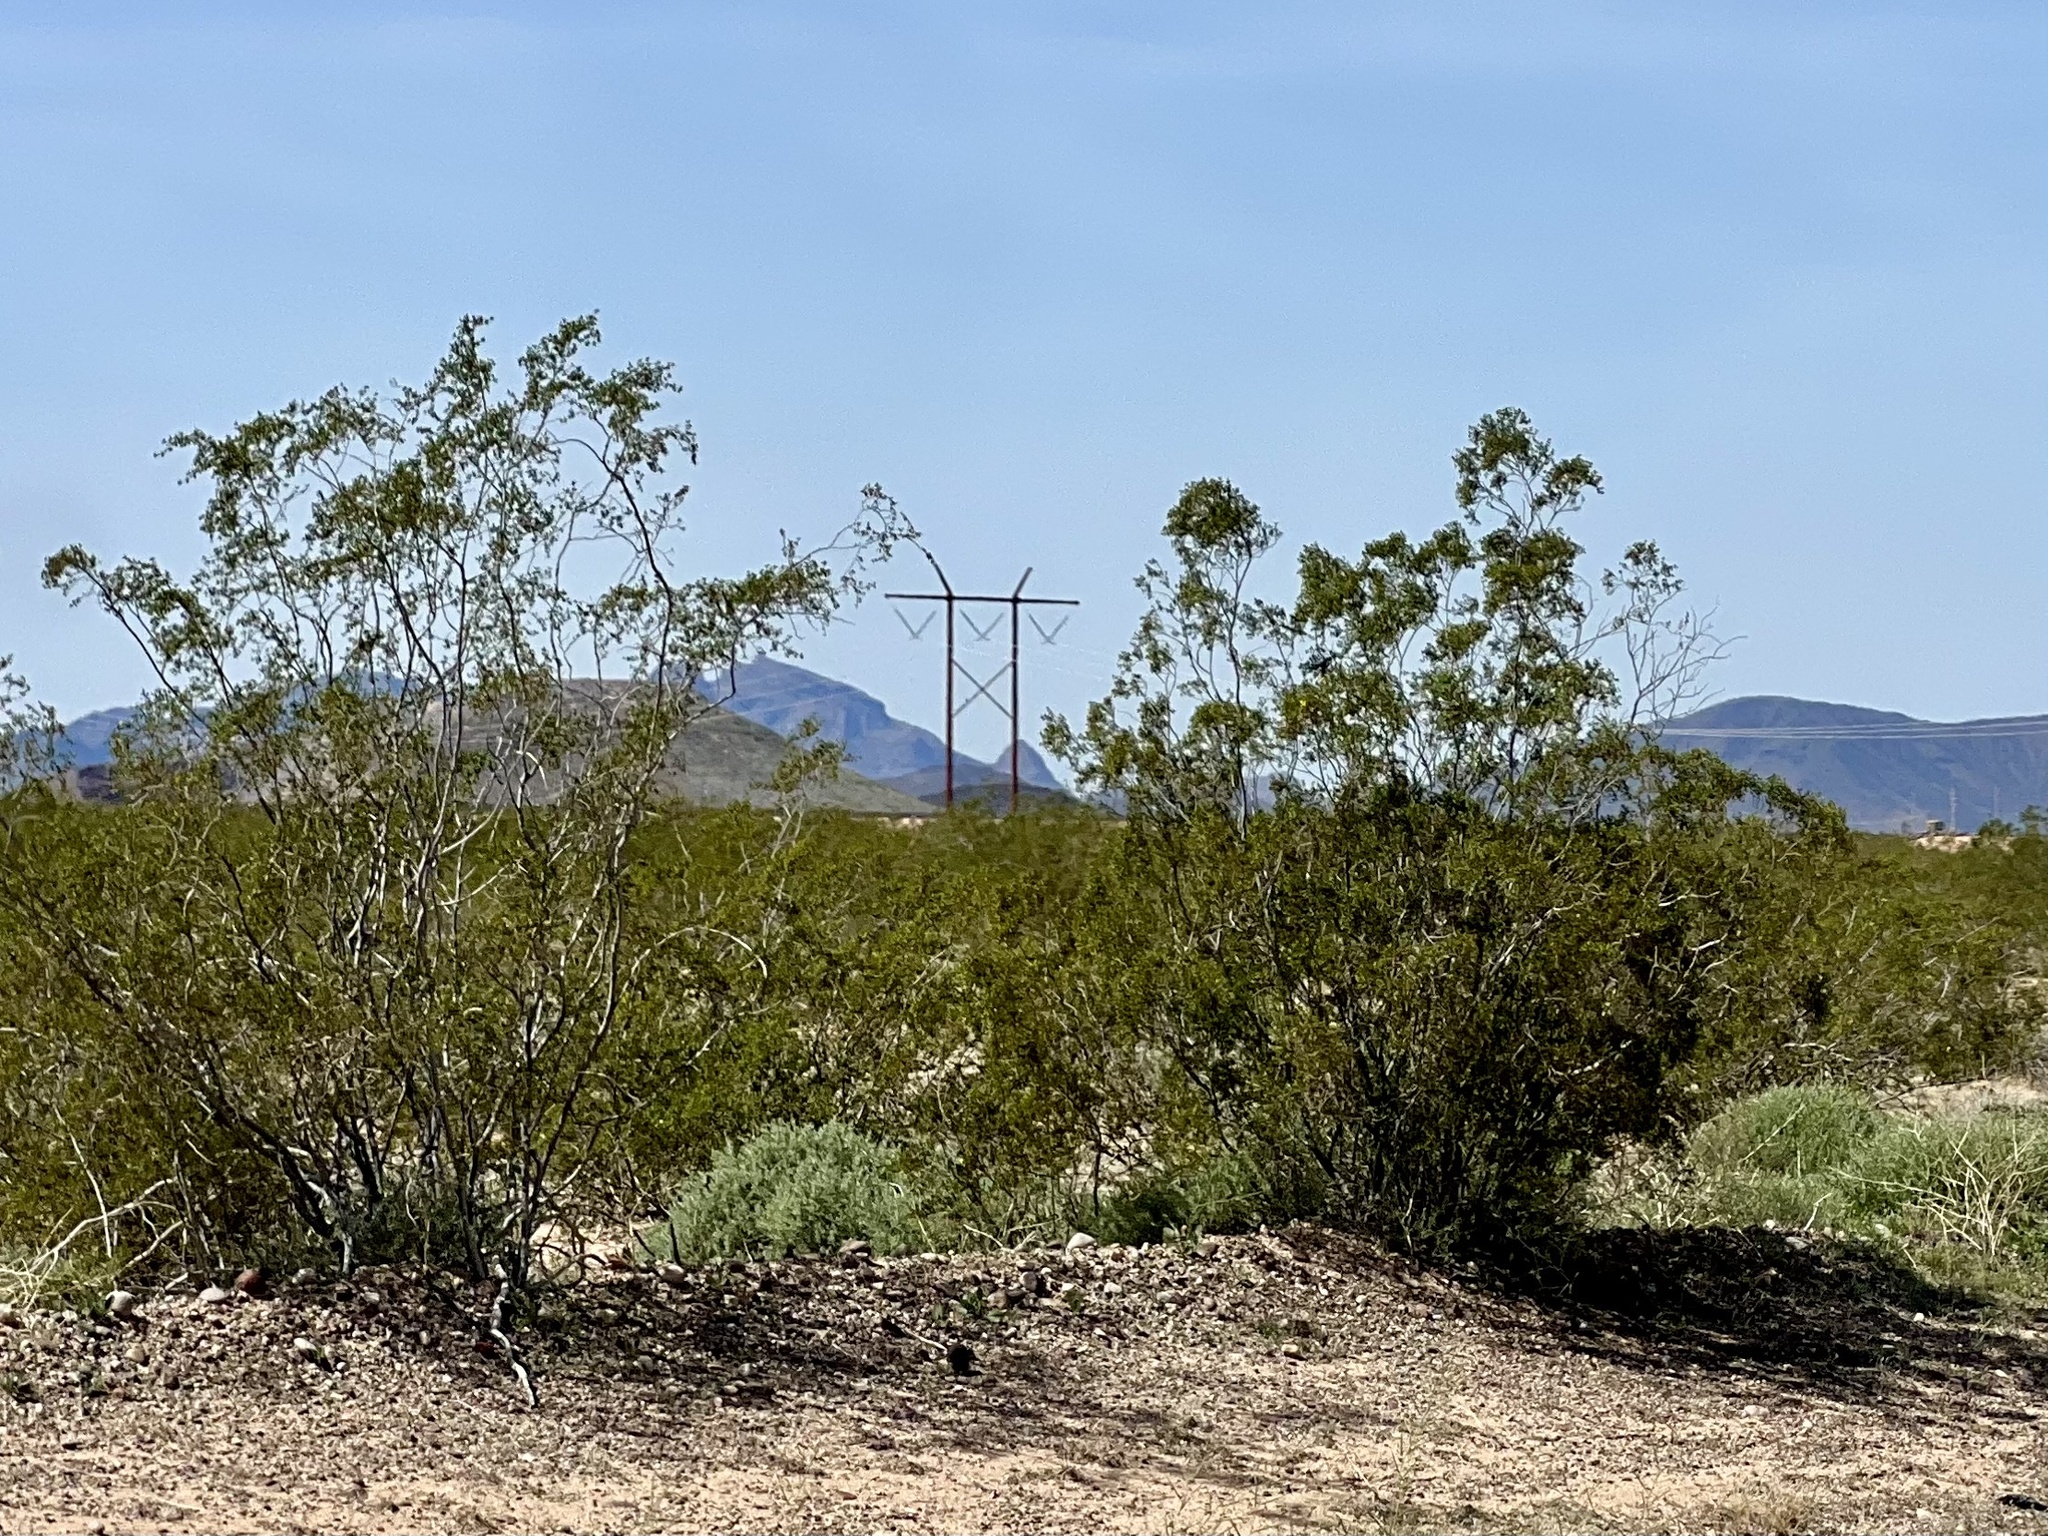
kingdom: Plantae
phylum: Tracheophyta
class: Magnoliopsida
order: Zygophyllales
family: Zygophyllaceae
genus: Larrea
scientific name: Larrea tridentata
